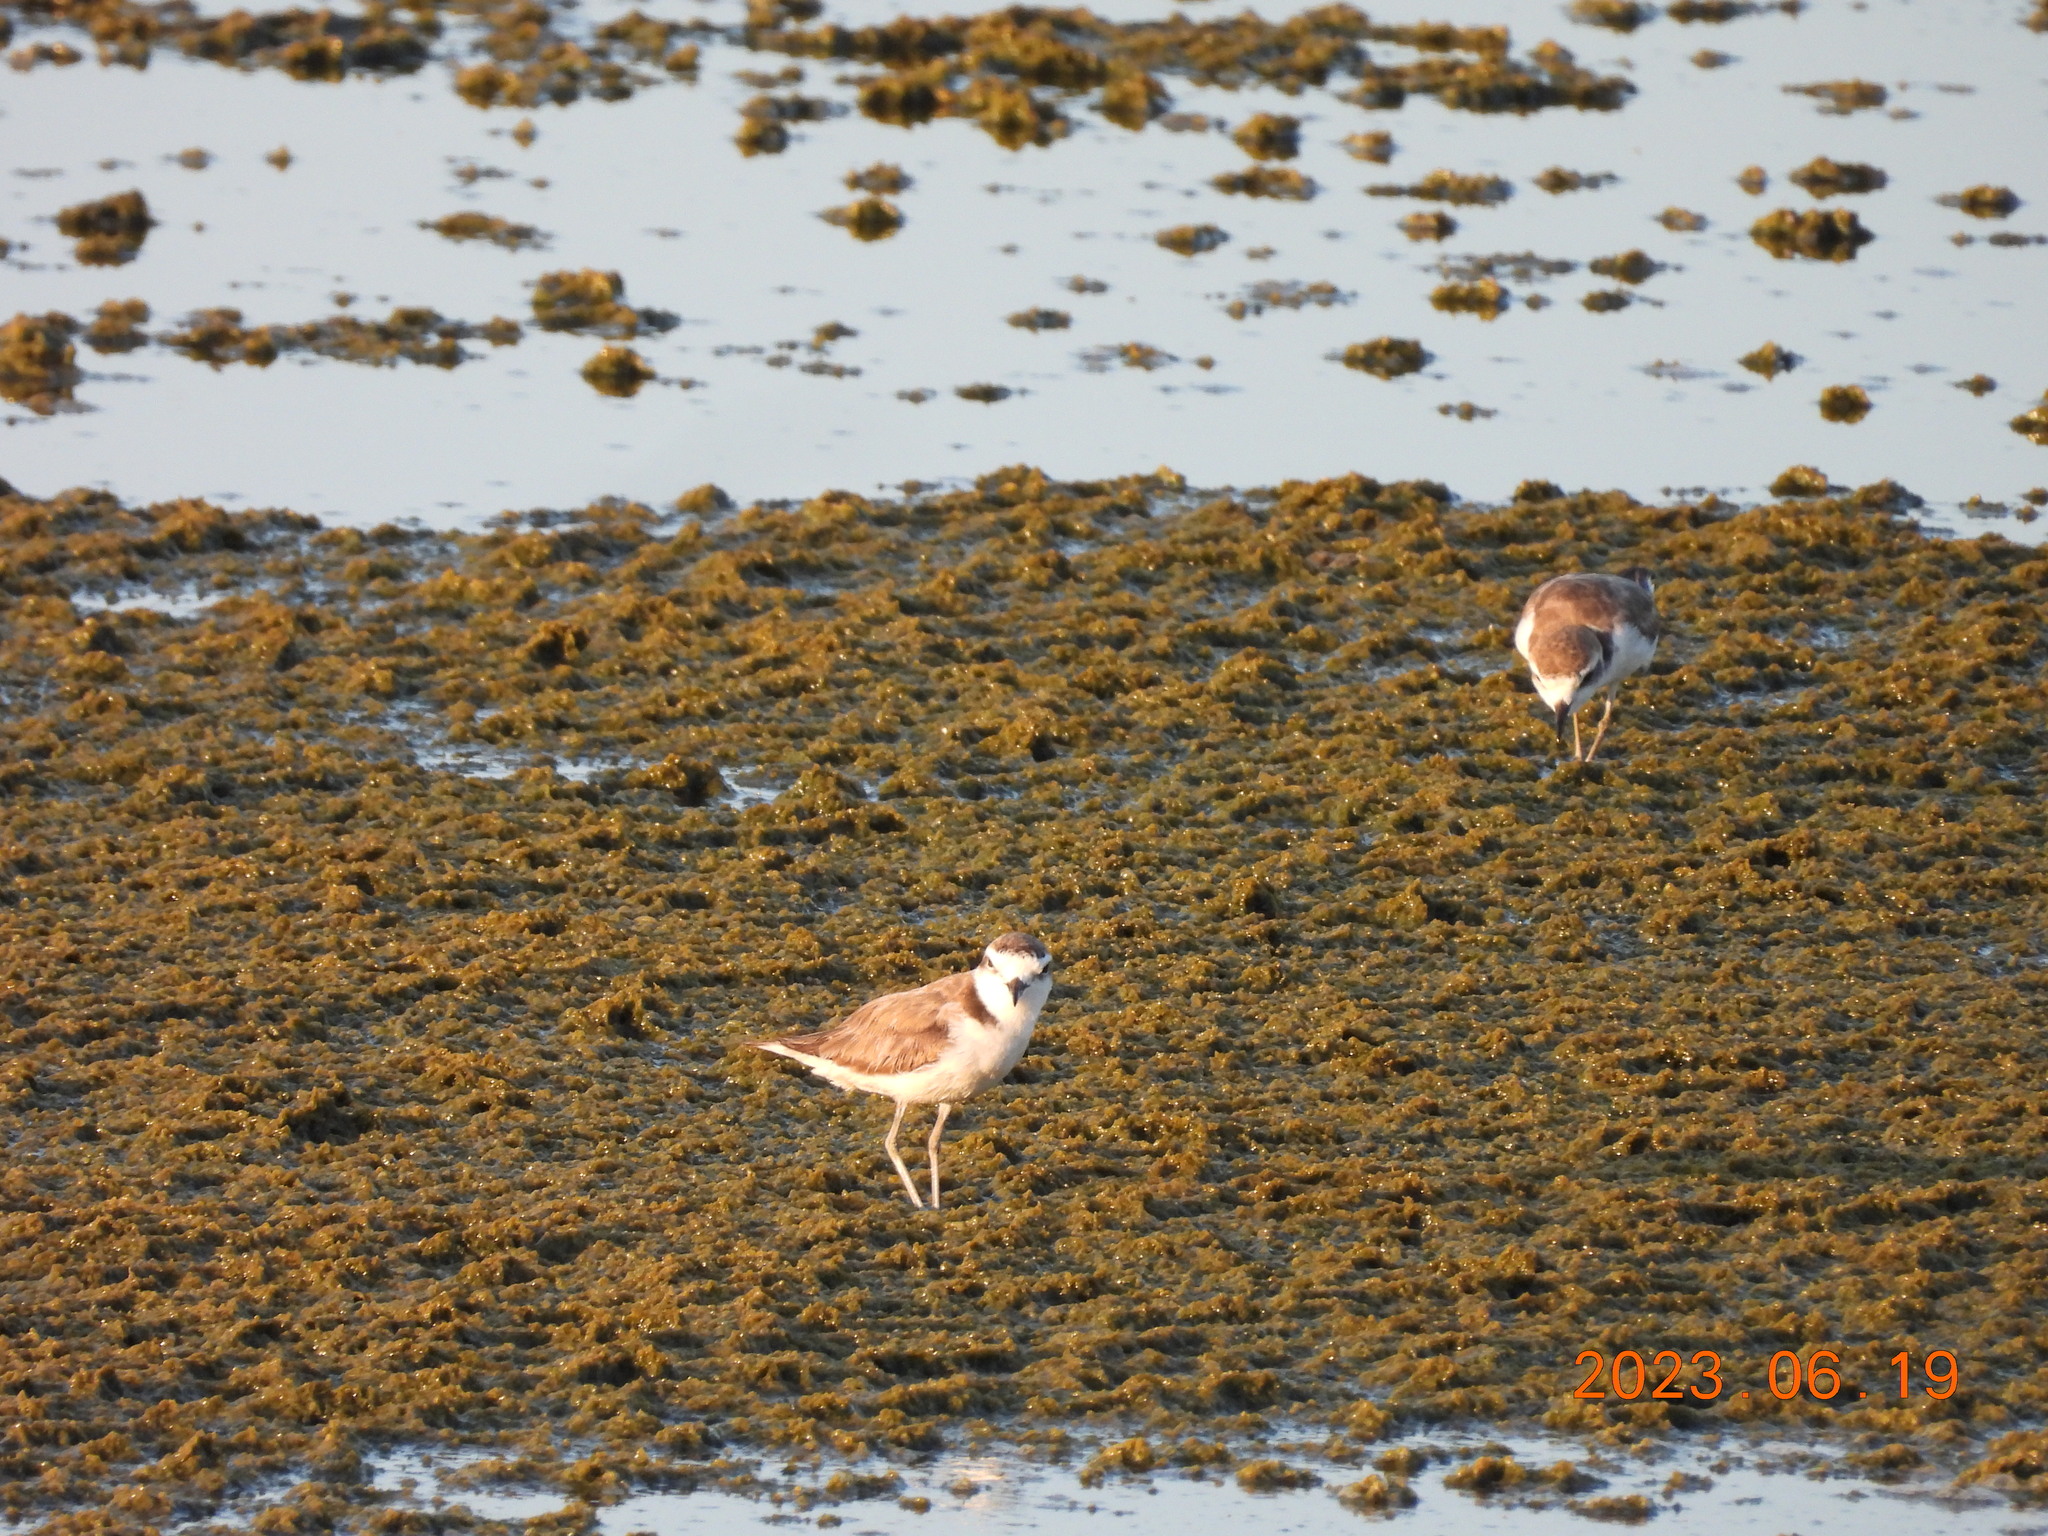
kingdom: Animalia
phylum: Chordata
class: Aves
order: Charadriiformes
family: Charadriidae
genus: Charadrius
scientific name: Charadrius alexandrinus
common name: Kentish plover
